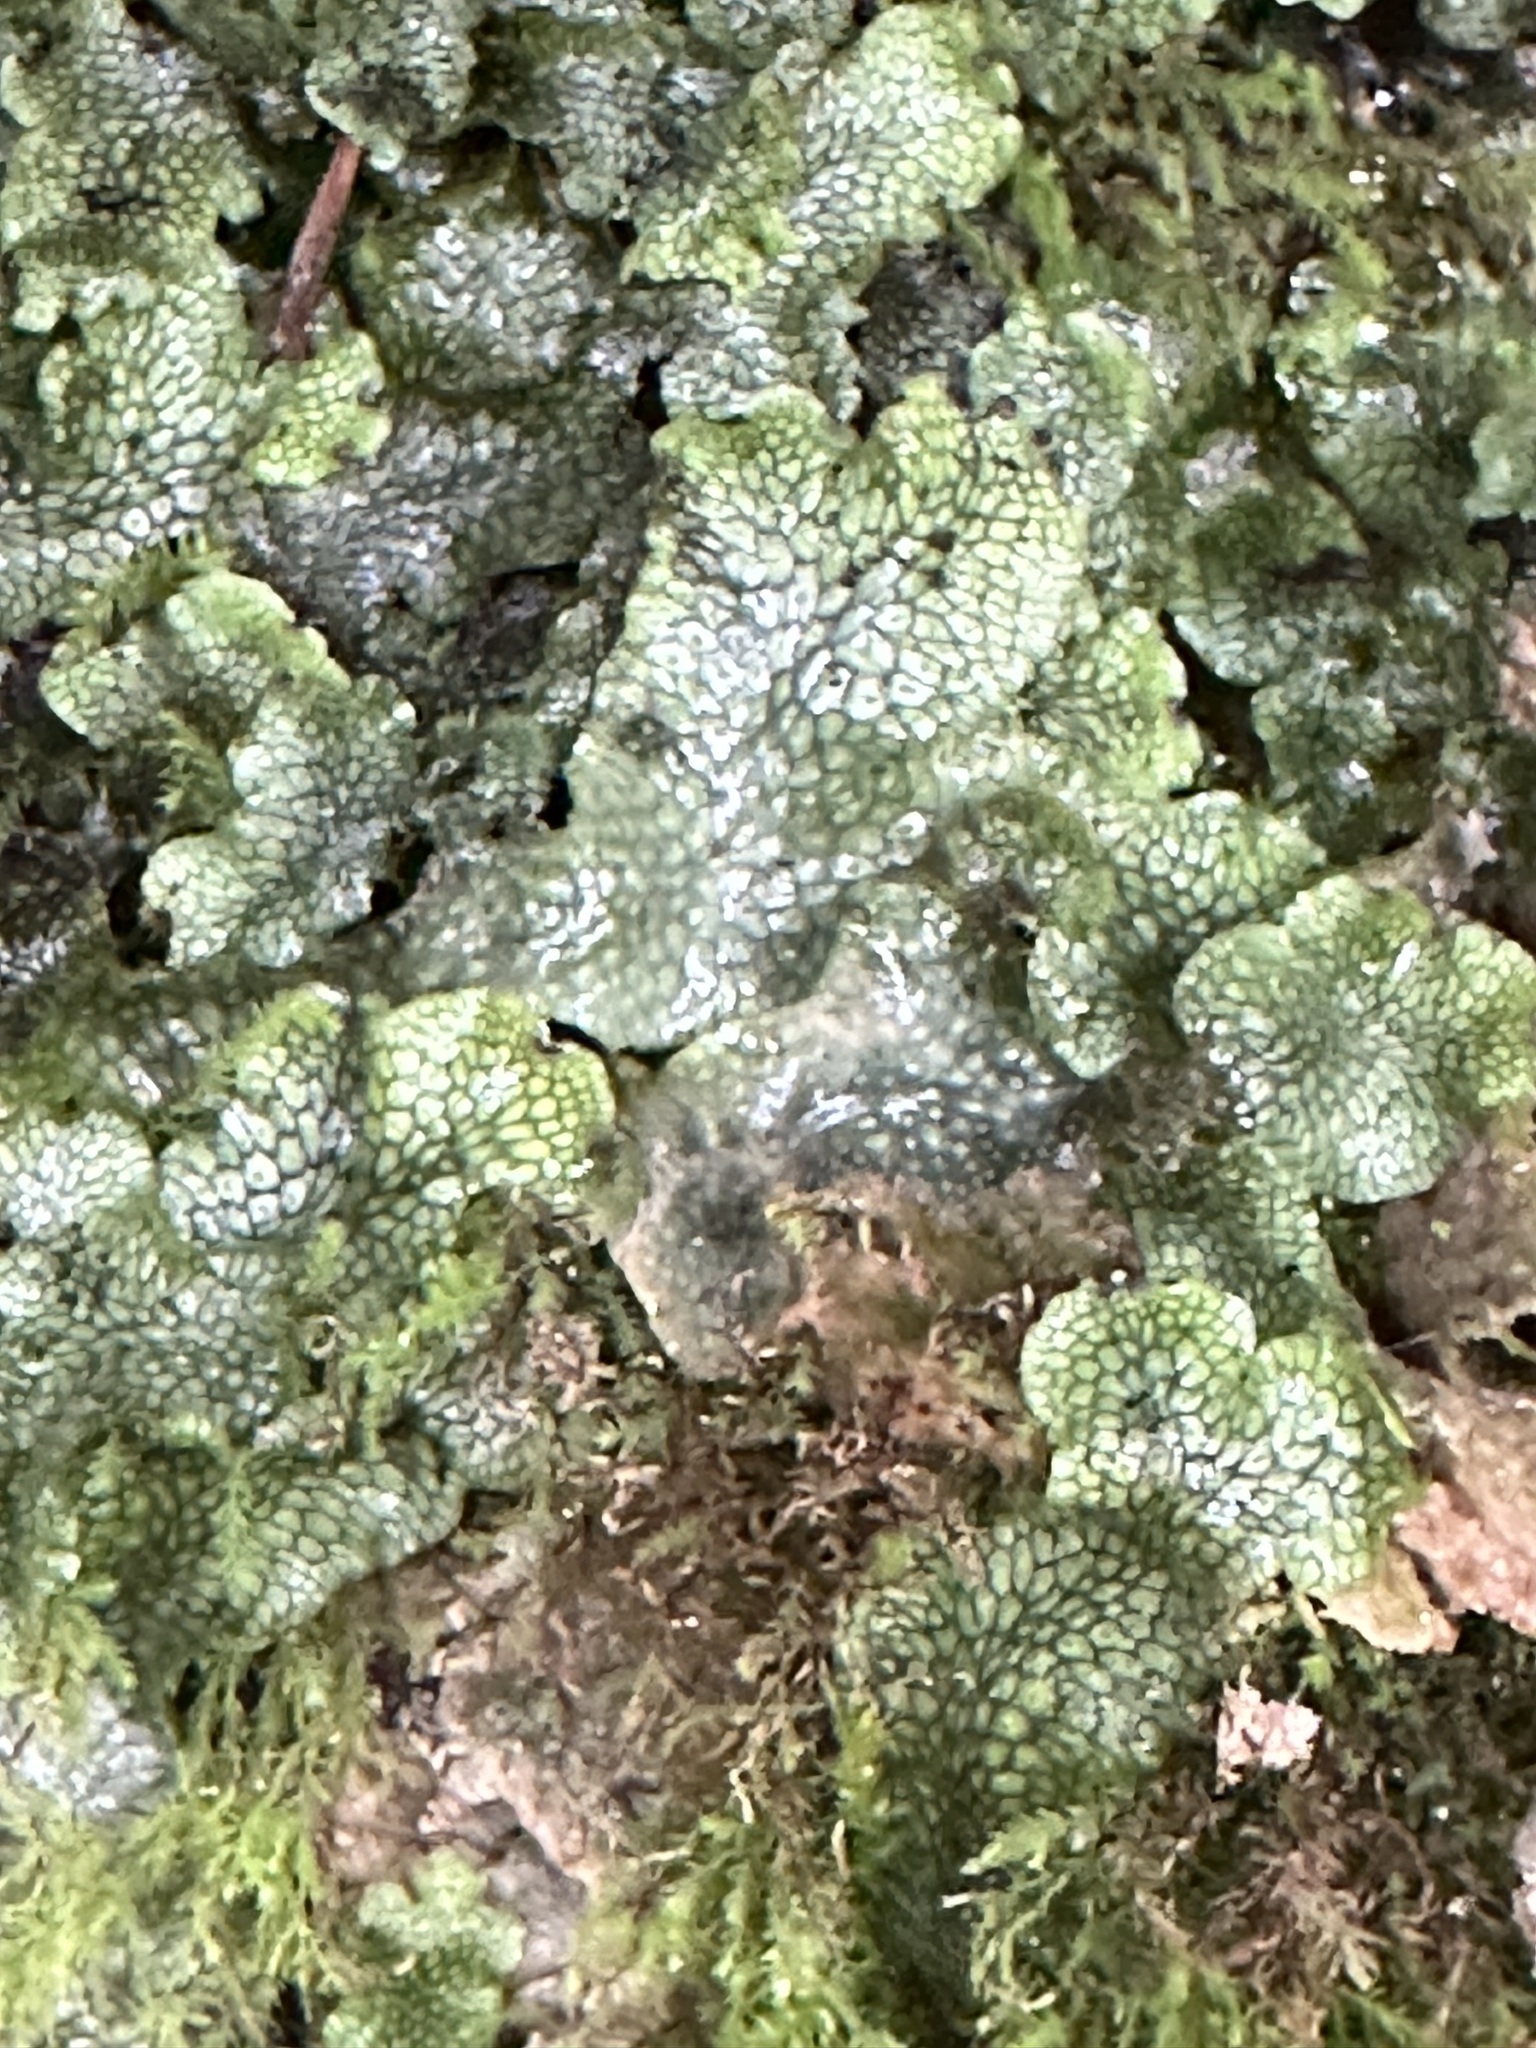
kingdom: Plantae
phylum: Marchantiophyta
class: Marchantiopsida
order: Marchantiales
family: Conocephalaceae
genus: Conocephalum
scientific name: Conocephalum salebrosum
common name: Cat-tongue liverwort
